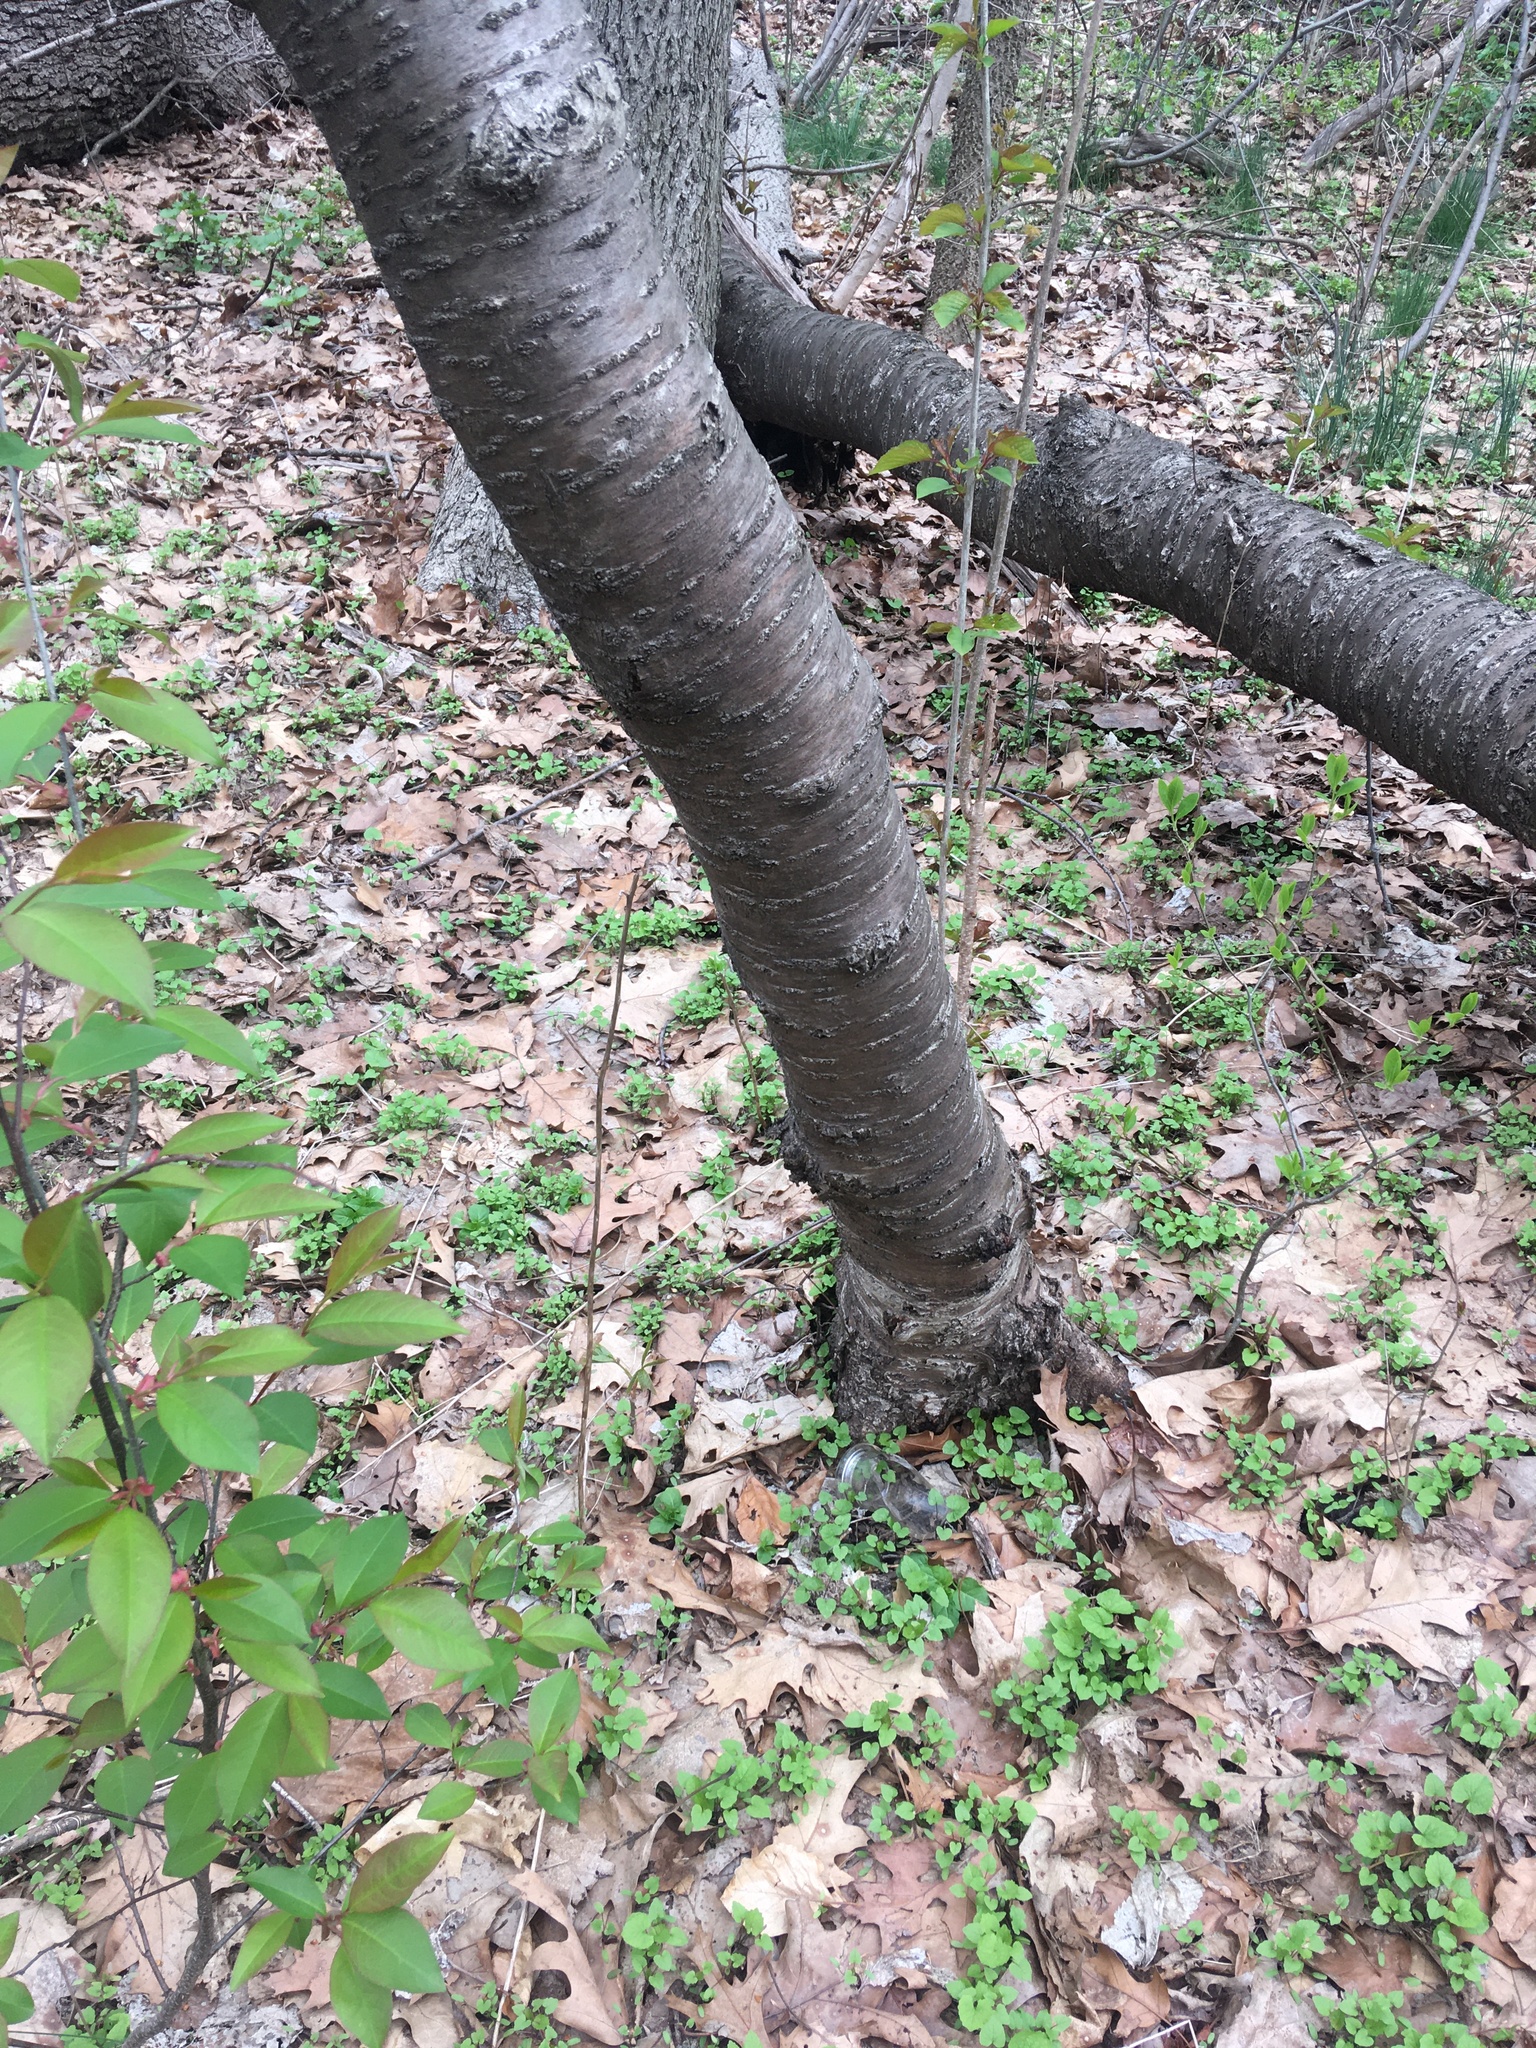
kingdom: Plantae
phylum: Tracheophyta
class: Magnoliopsida
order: Rosales
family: Rosaceae
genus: Prunus
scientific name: Prunus avium
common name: Sweet cherry
